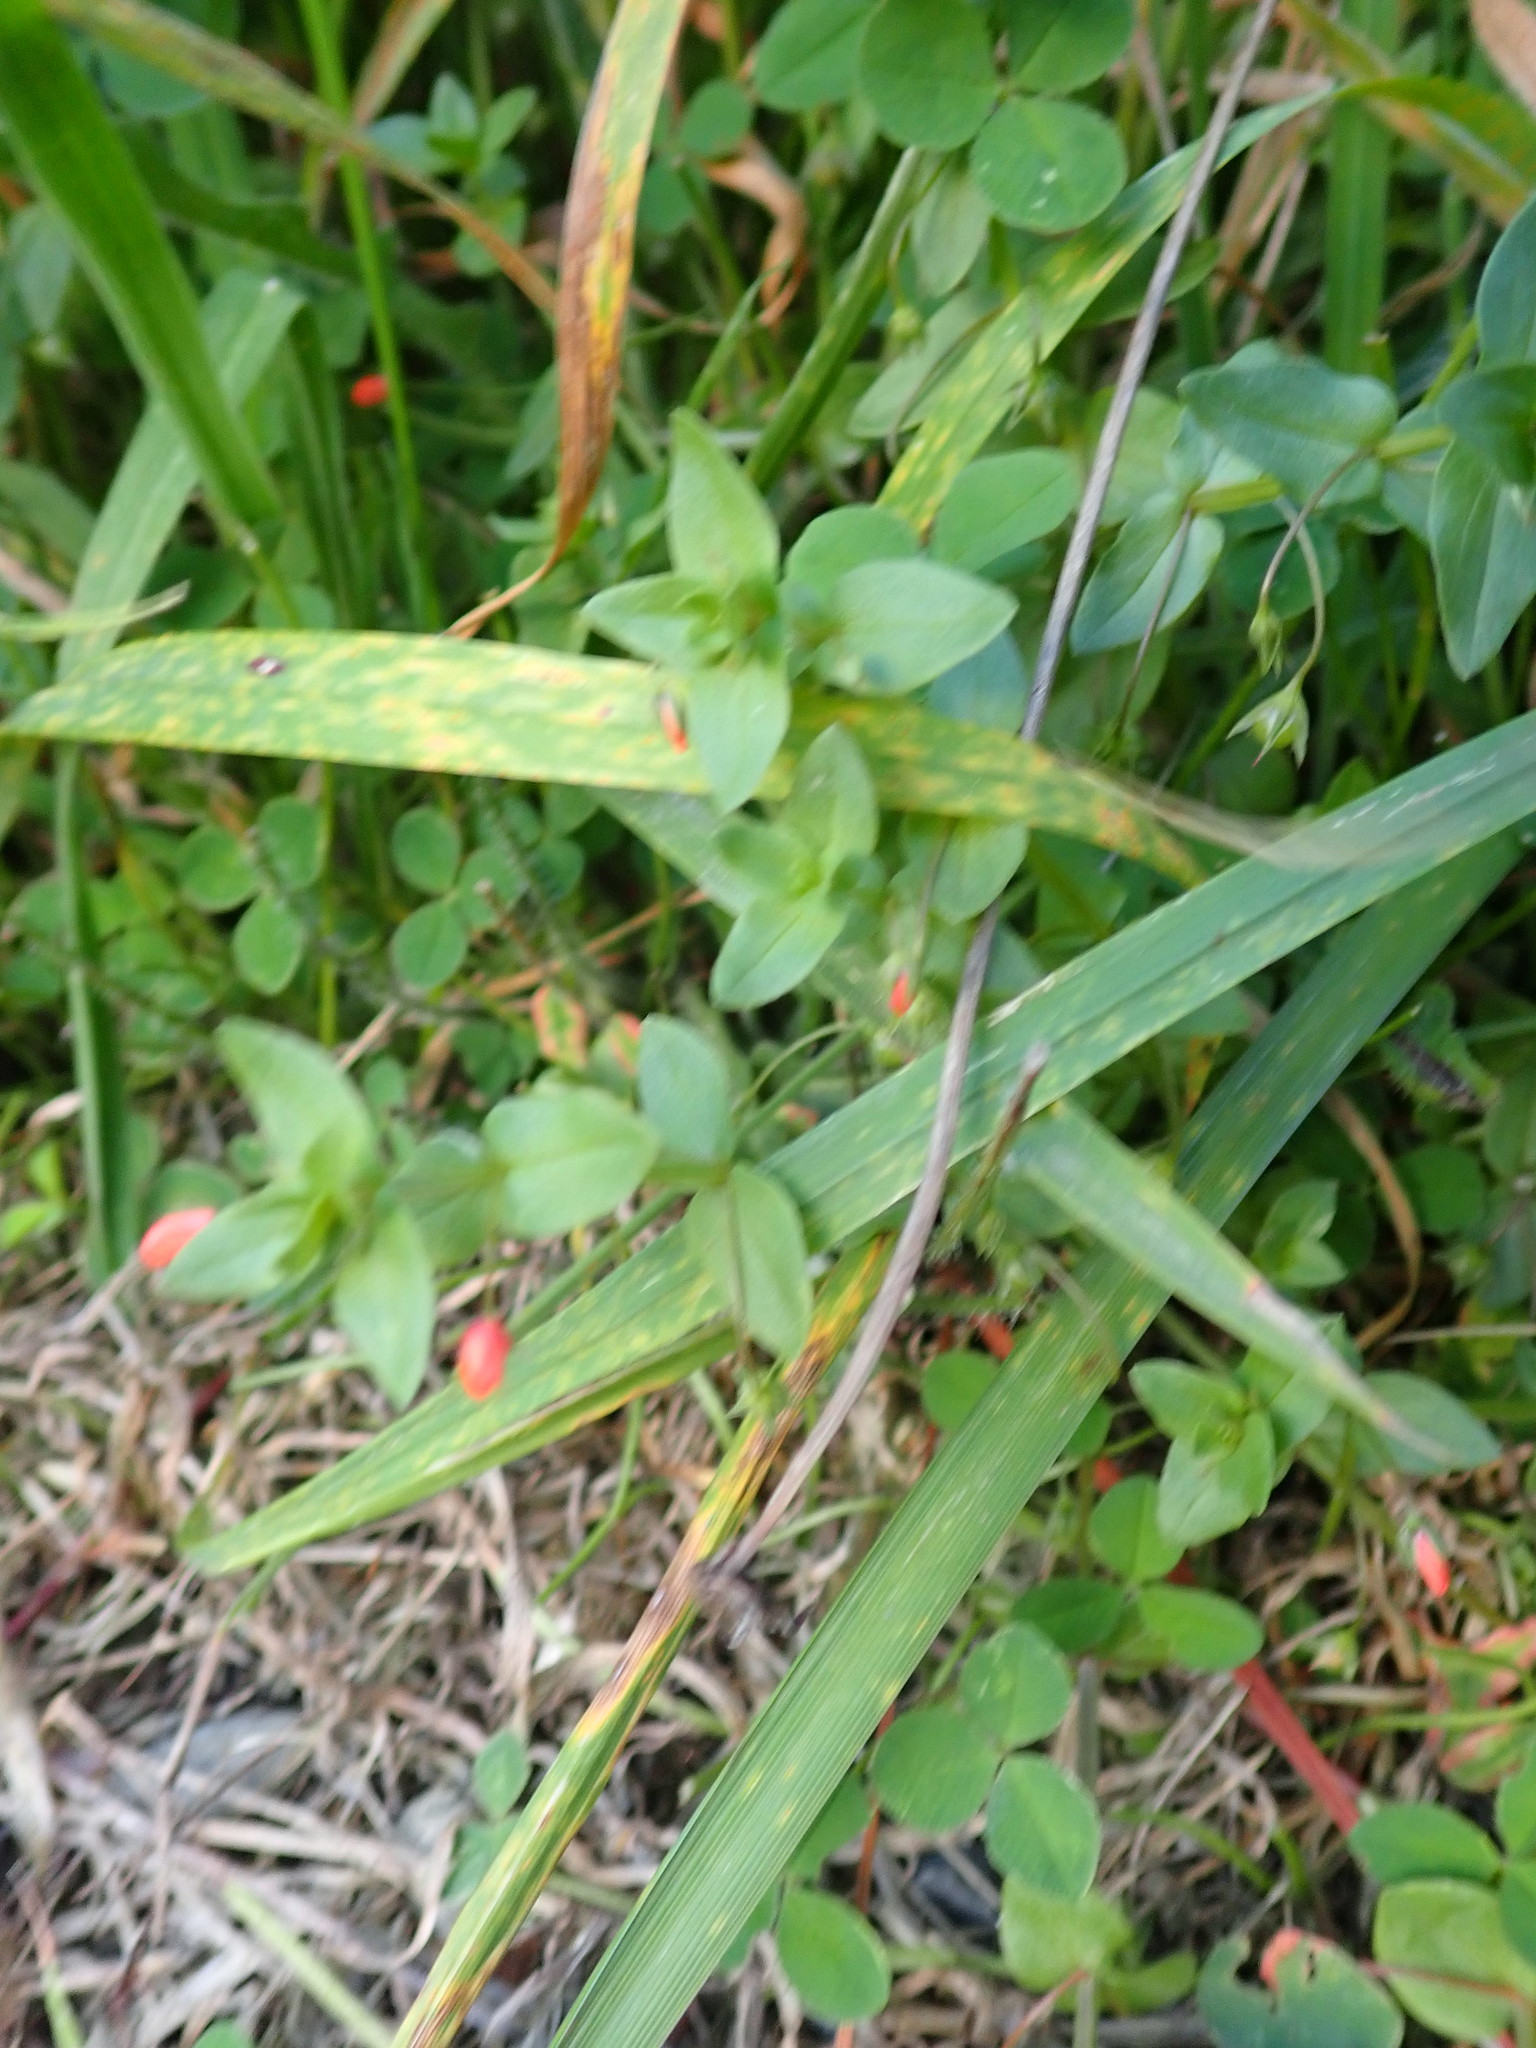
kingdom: Plantae
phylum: Tracheophyta
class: Magnoliopsida
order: Ericales
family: Primulaceae
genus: Lysimachia
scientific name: Lysimachia arvensis
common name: Scarlet pimpernel
